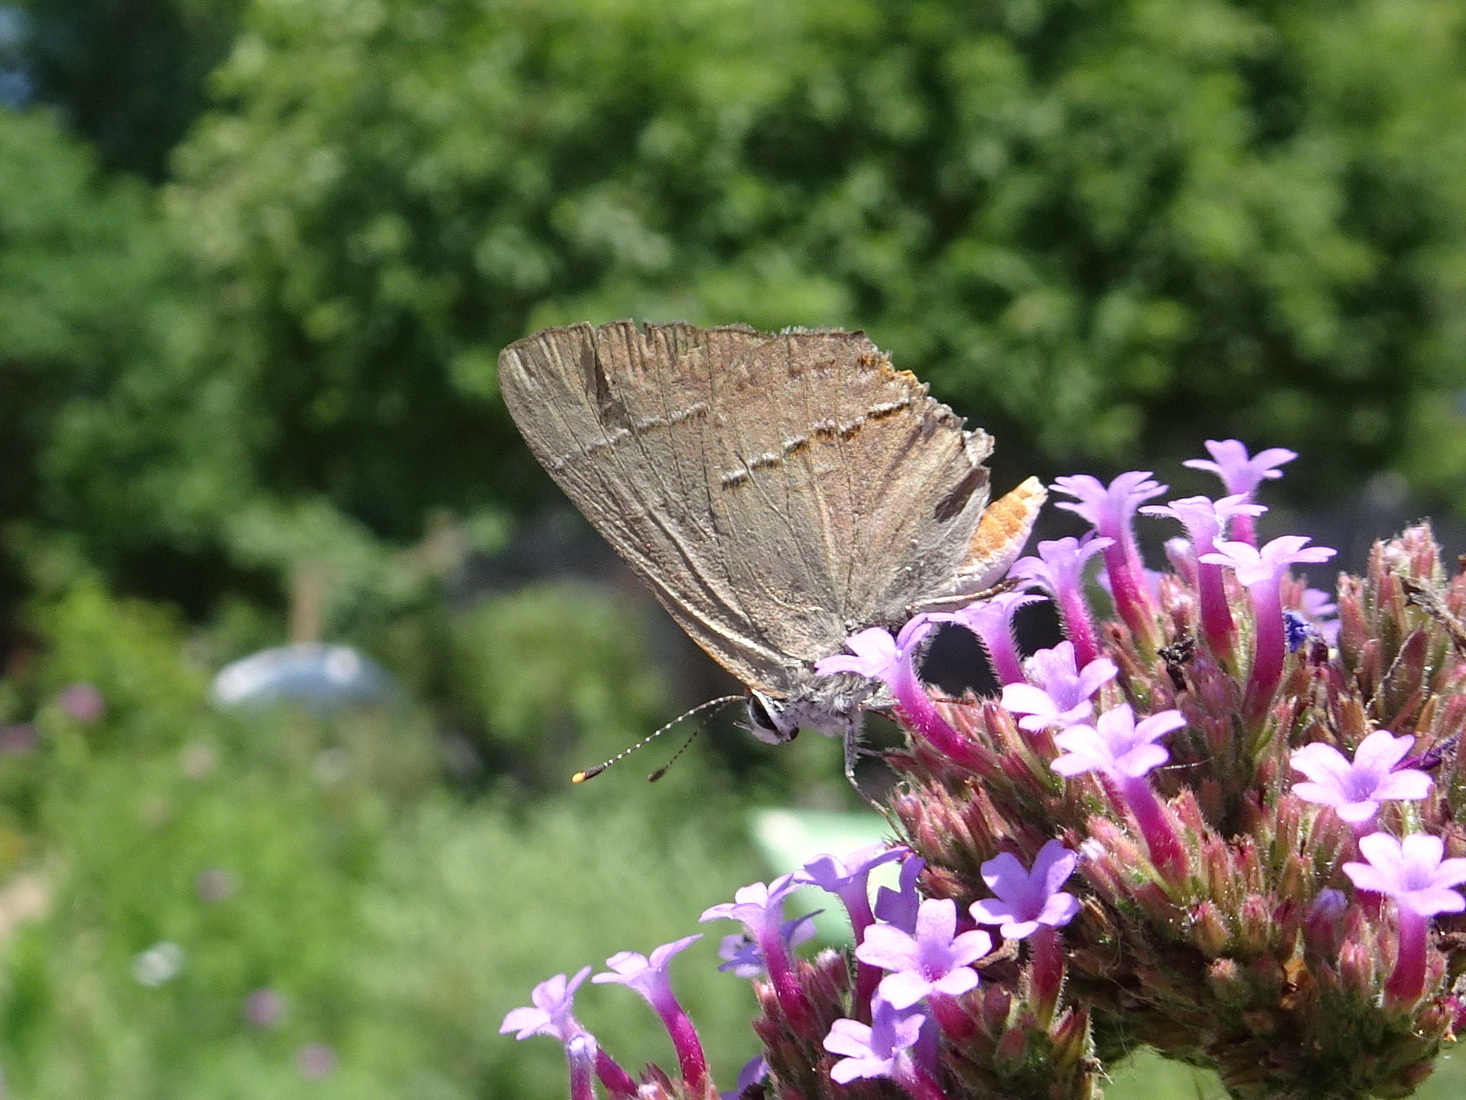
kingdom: Animalia
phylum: Arthropoda
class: Insecta
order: Lepidoptera
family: Lycaenidae
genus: Strymon
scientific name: Strymon melinus
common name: Gray hairstreak
